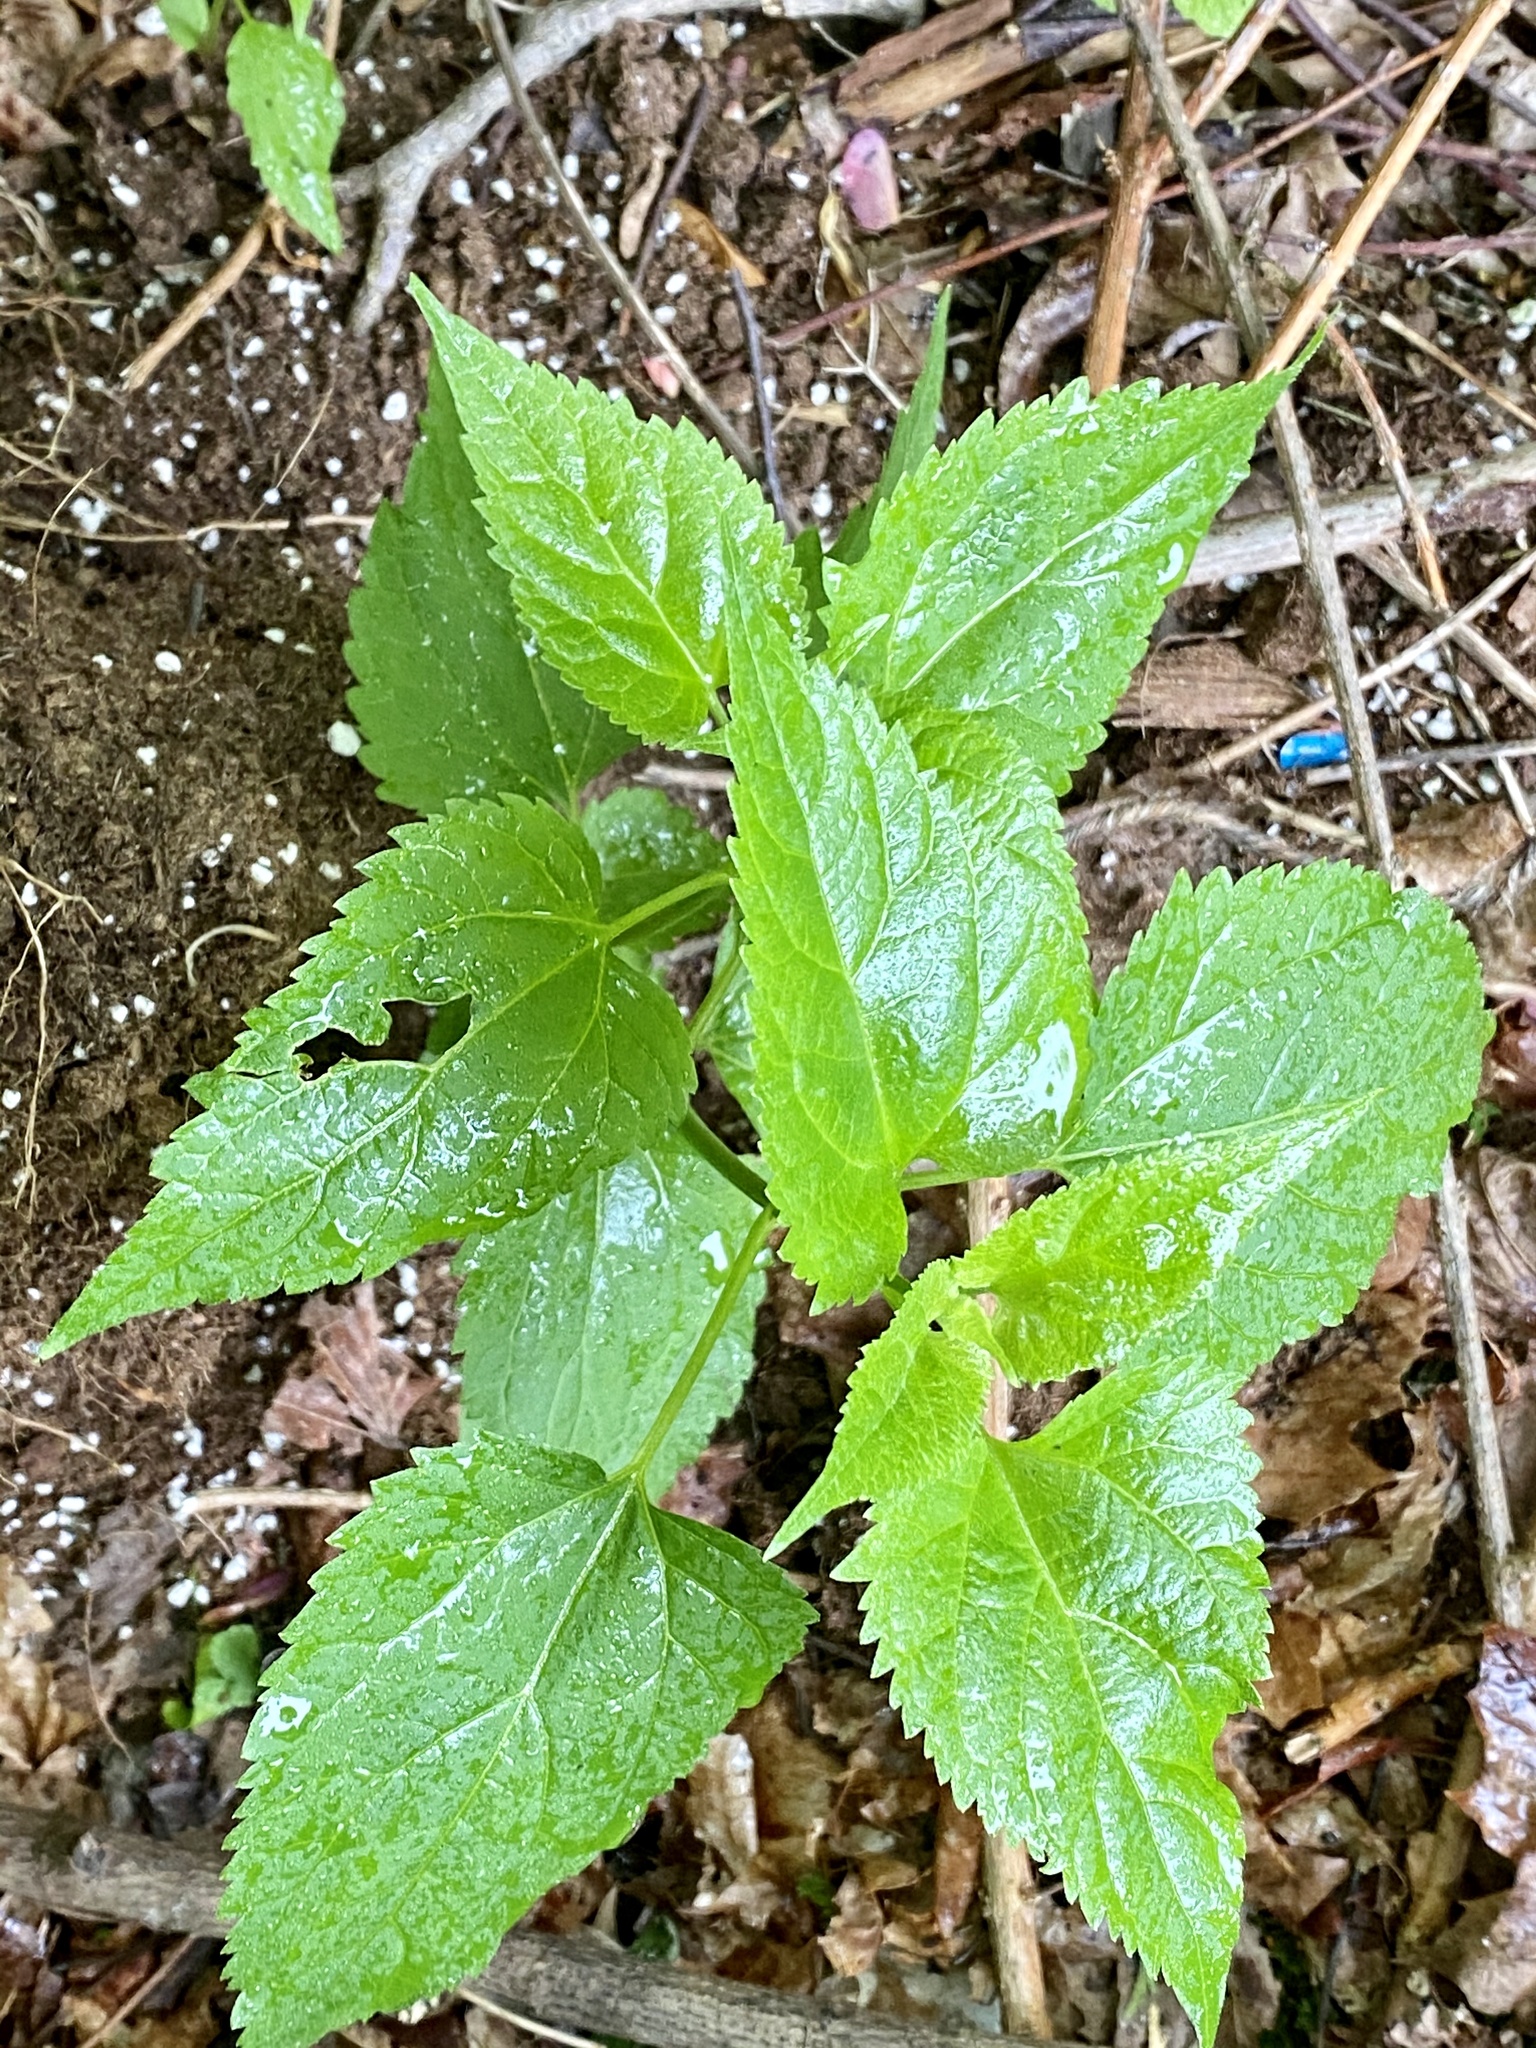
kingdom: Plantae
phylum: Tracheophyta
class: Magnoliopsida
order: Asterales
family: Asteraceae
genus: Ageratina
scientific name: Ageratina altissima
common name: White snakeroot
